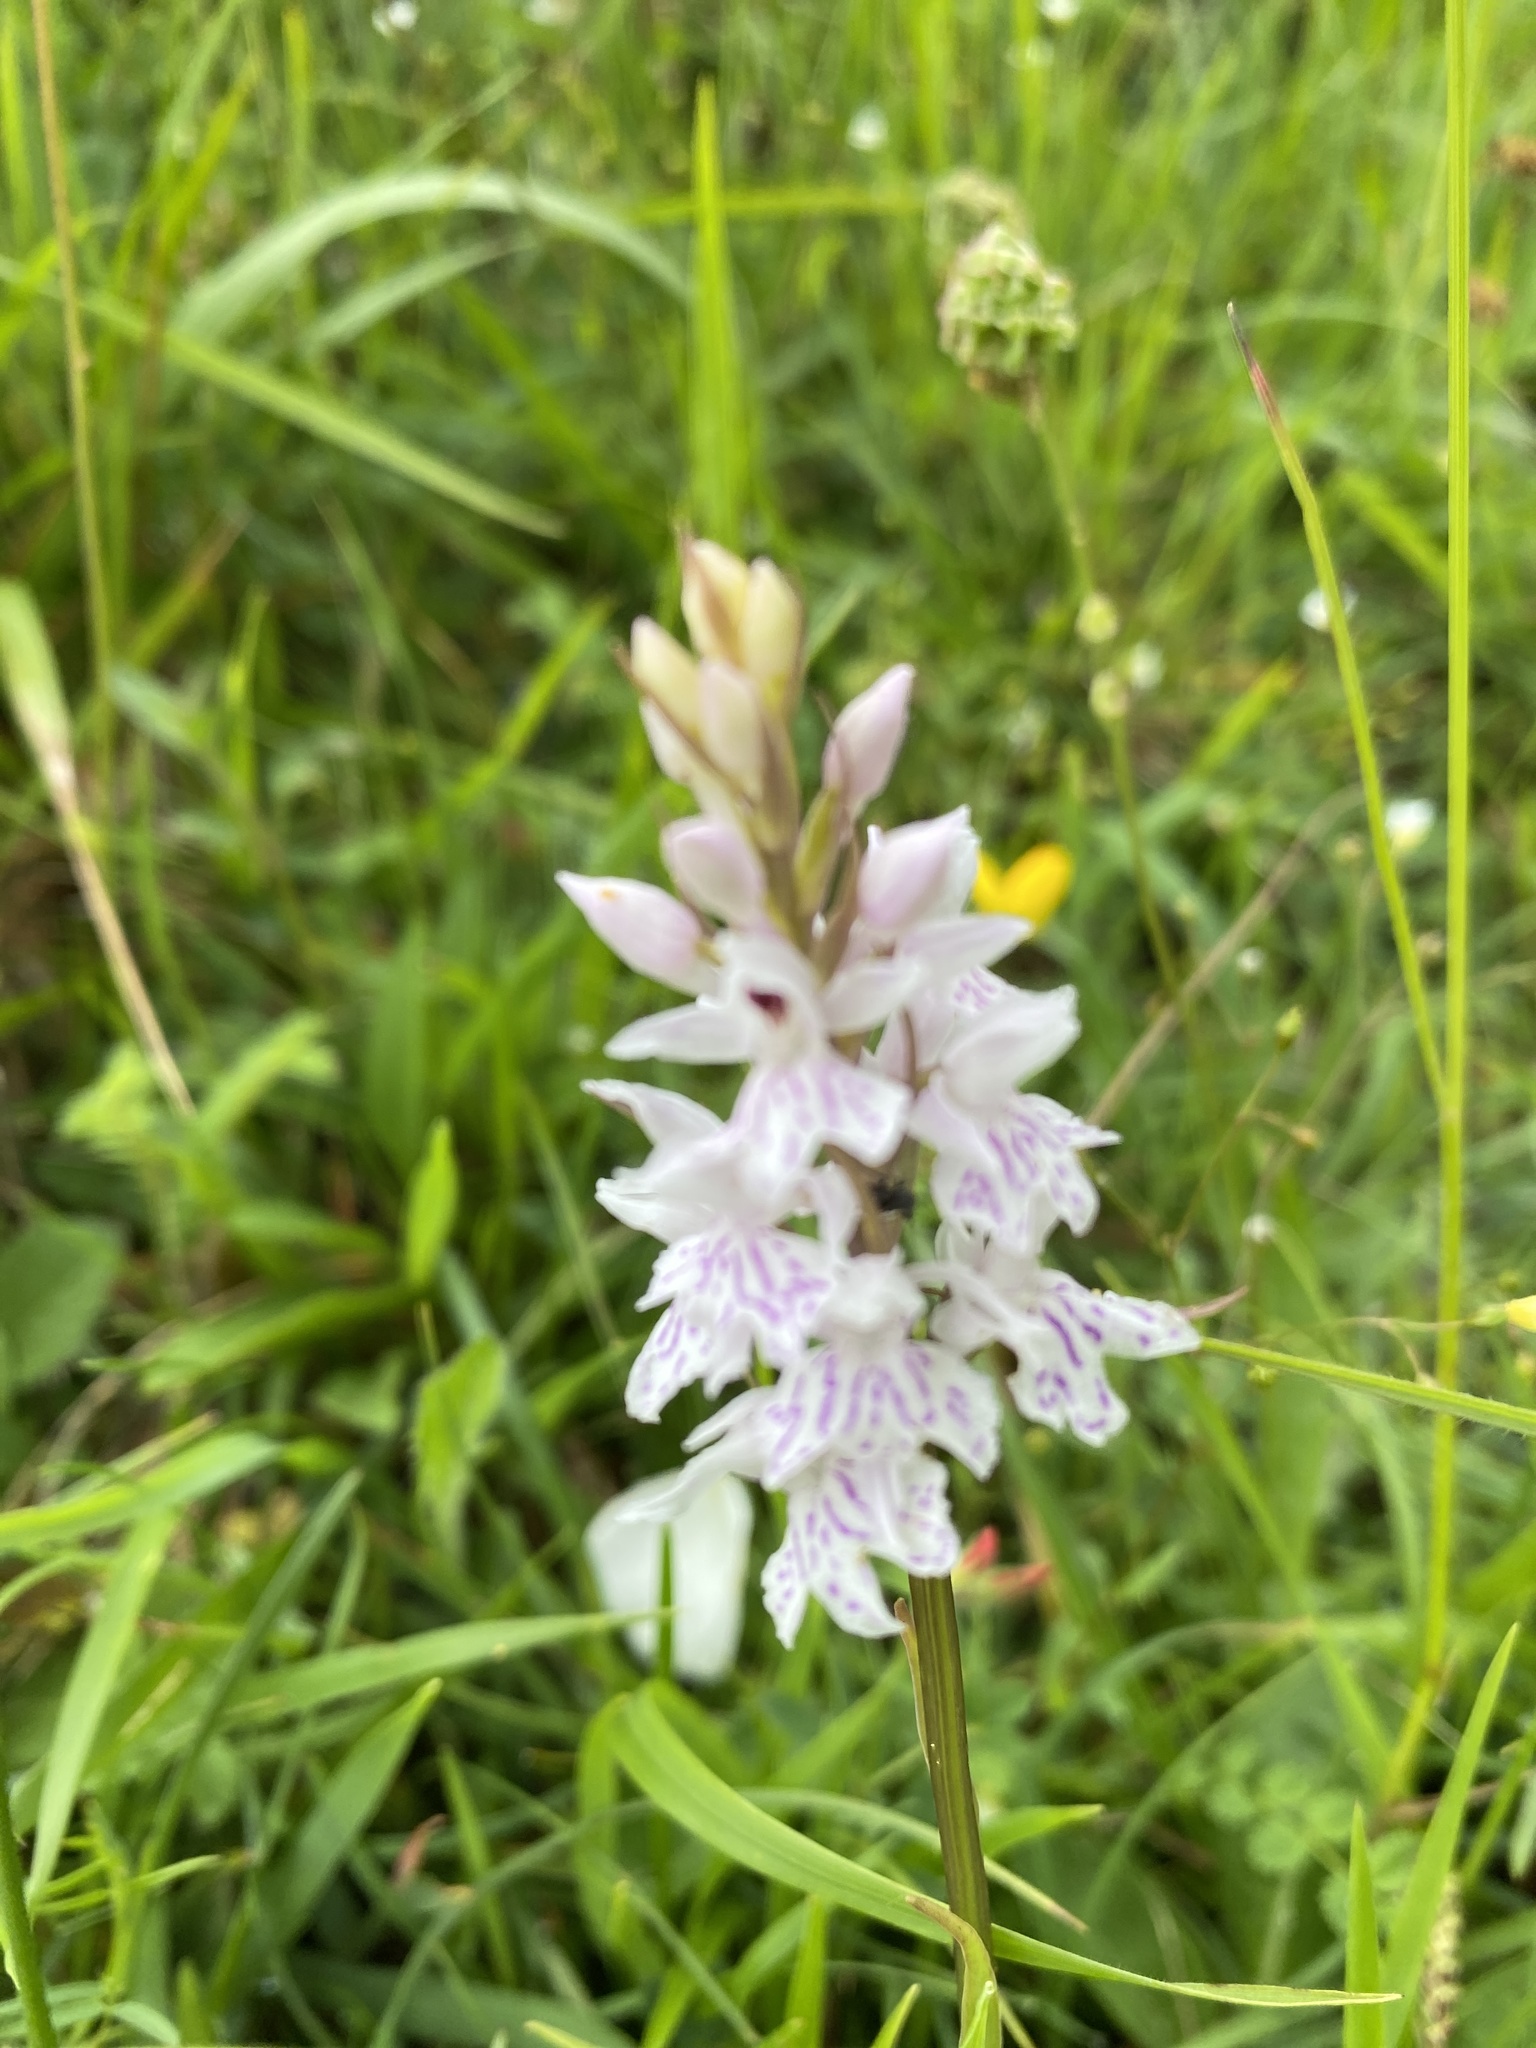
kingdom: Plantae
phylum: Tracheophyta
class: Liliopsida
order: Asparagales
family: Orchidaceae
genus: Dactylorhiza
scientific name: Dactylorhiza maculata
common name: Heath spotted-orchid
